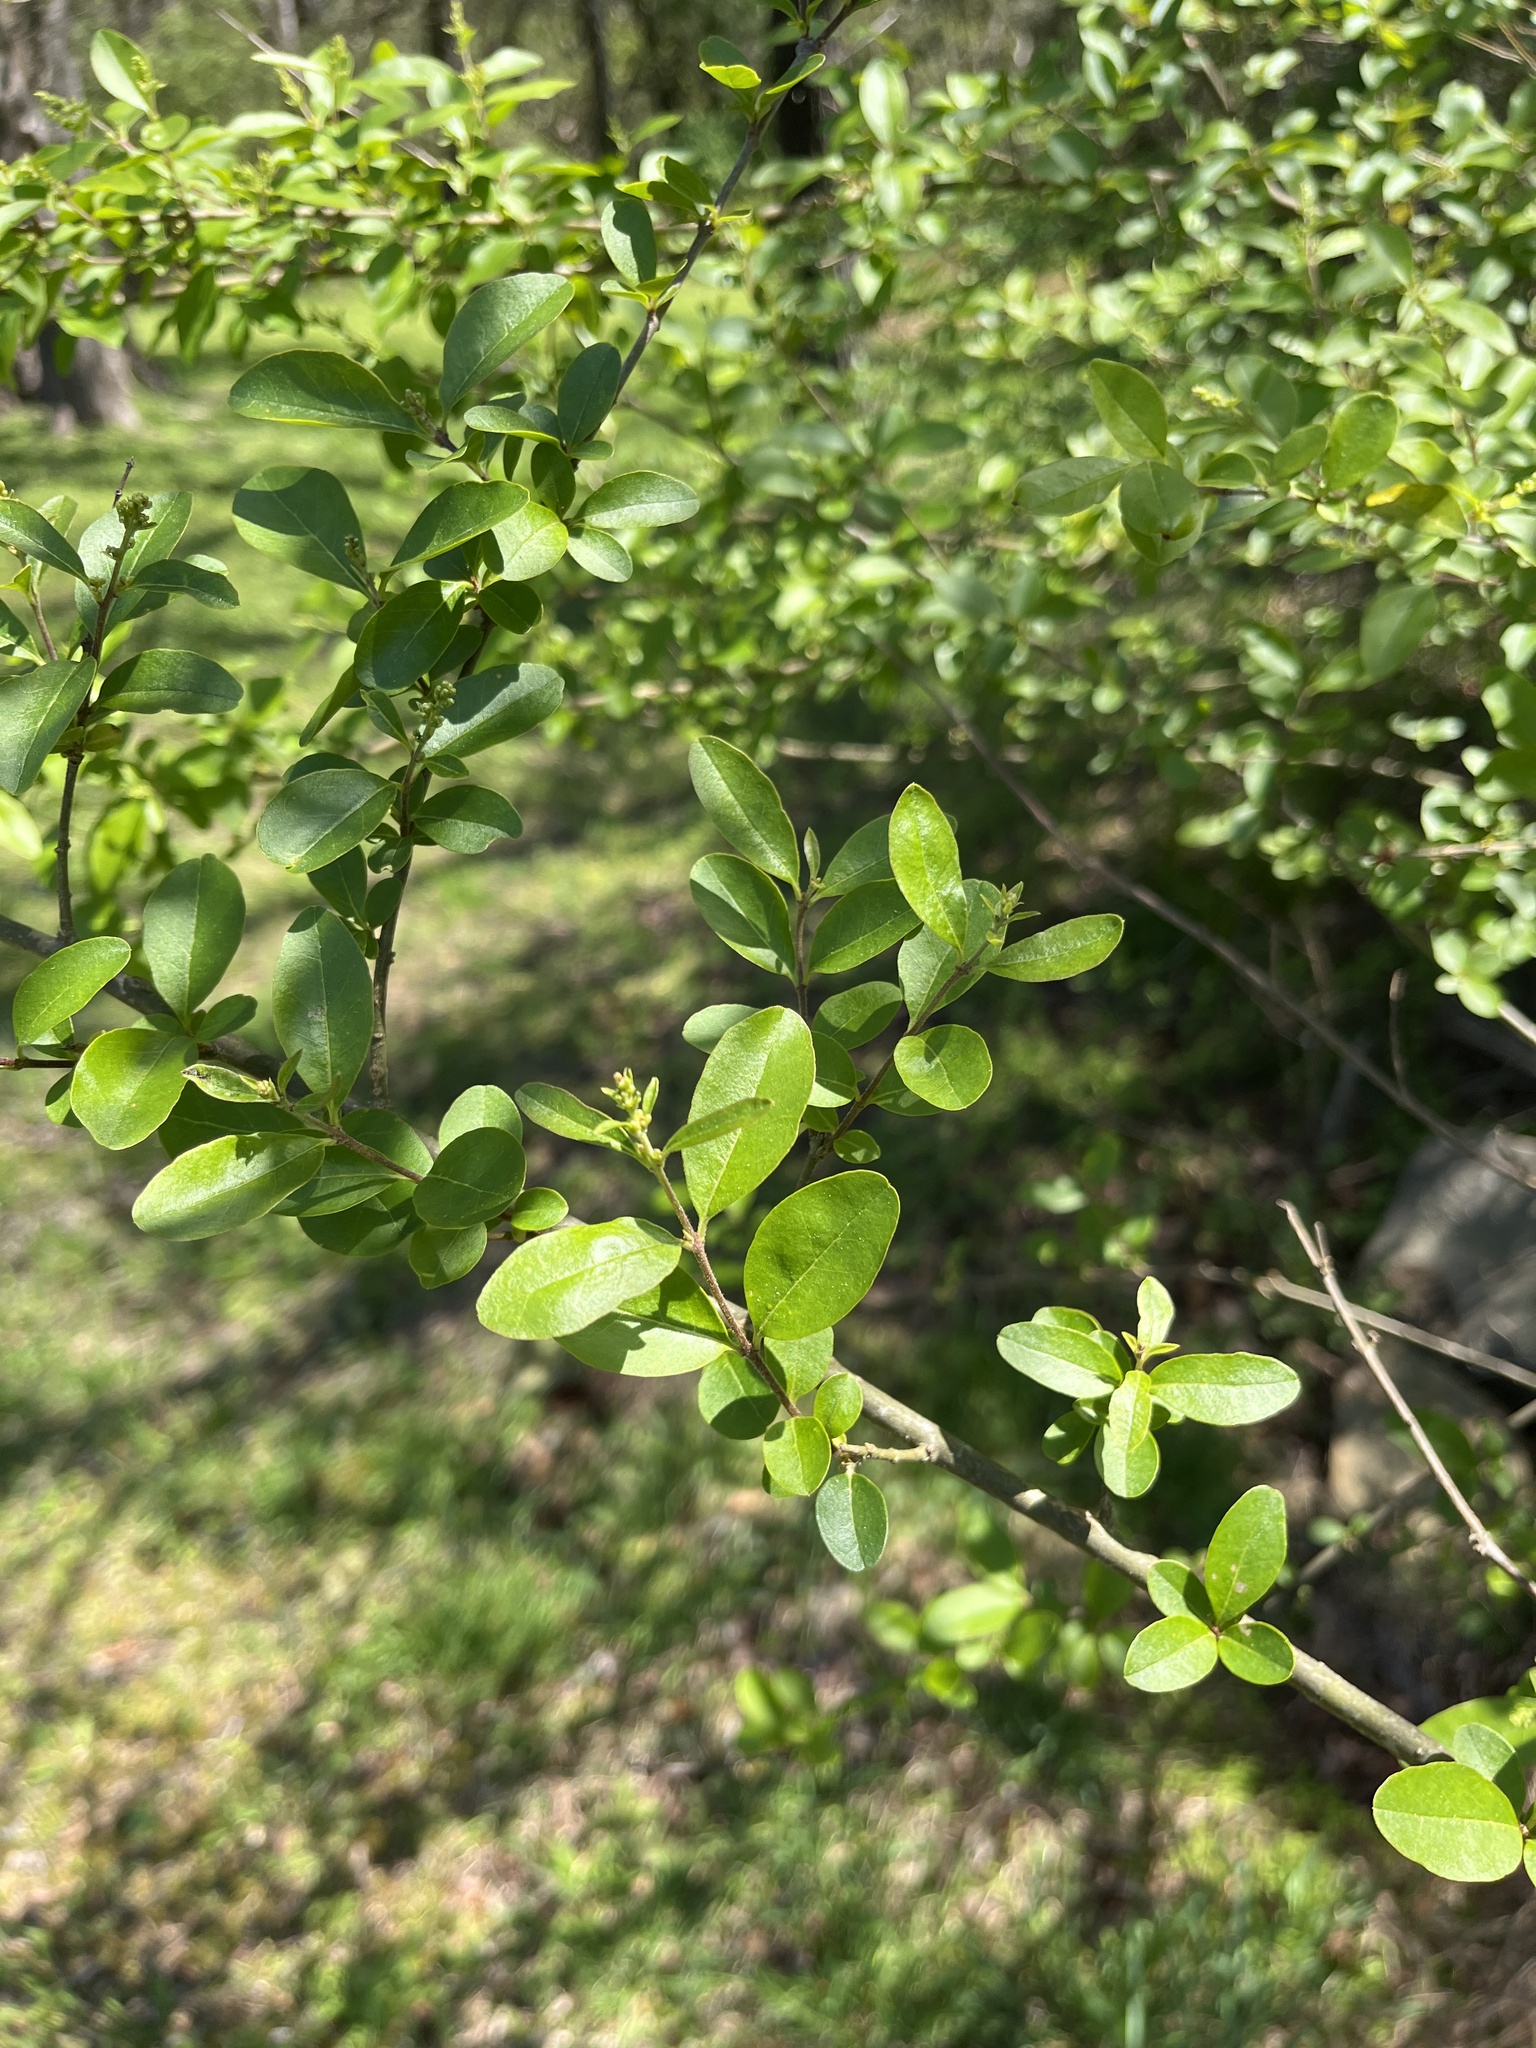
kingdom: Plantae
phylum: Tracheophyta
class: Magnoliopsida
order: Lamiales
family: Oleaceae
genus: Ligustrum
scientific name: Ligustrum sinense
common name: Chinese privet
